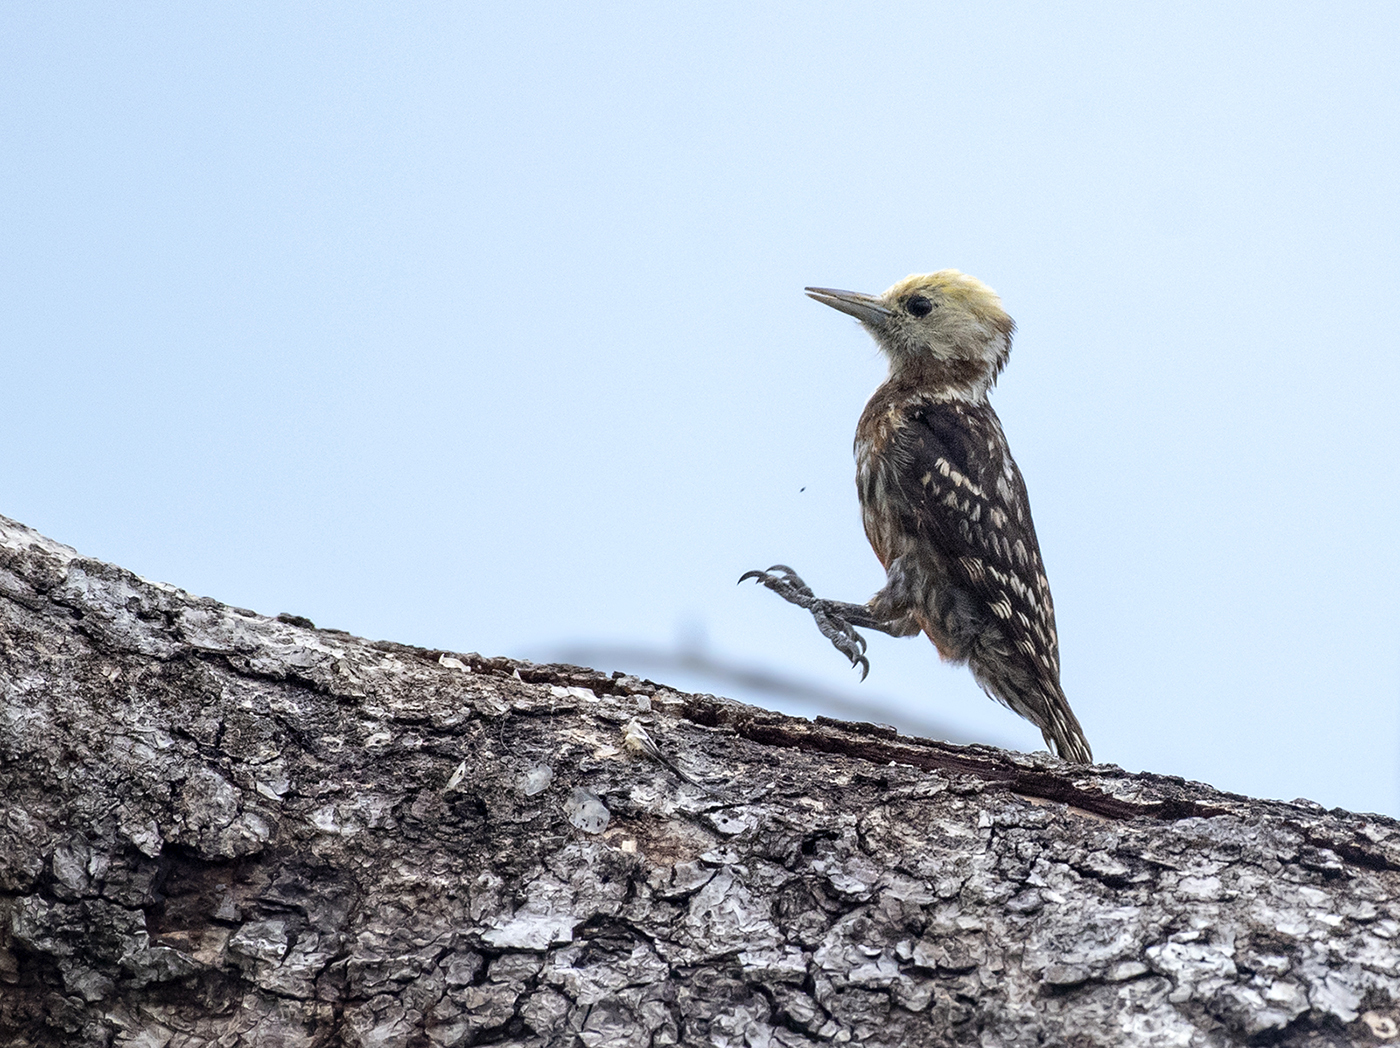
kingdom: Animalia
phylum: Chordata
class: Aves
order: Piciformes
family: Picidae
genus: Leiopicus
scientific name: Leiopicus mahrattensis
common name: Yellow-crowned woodpecker
